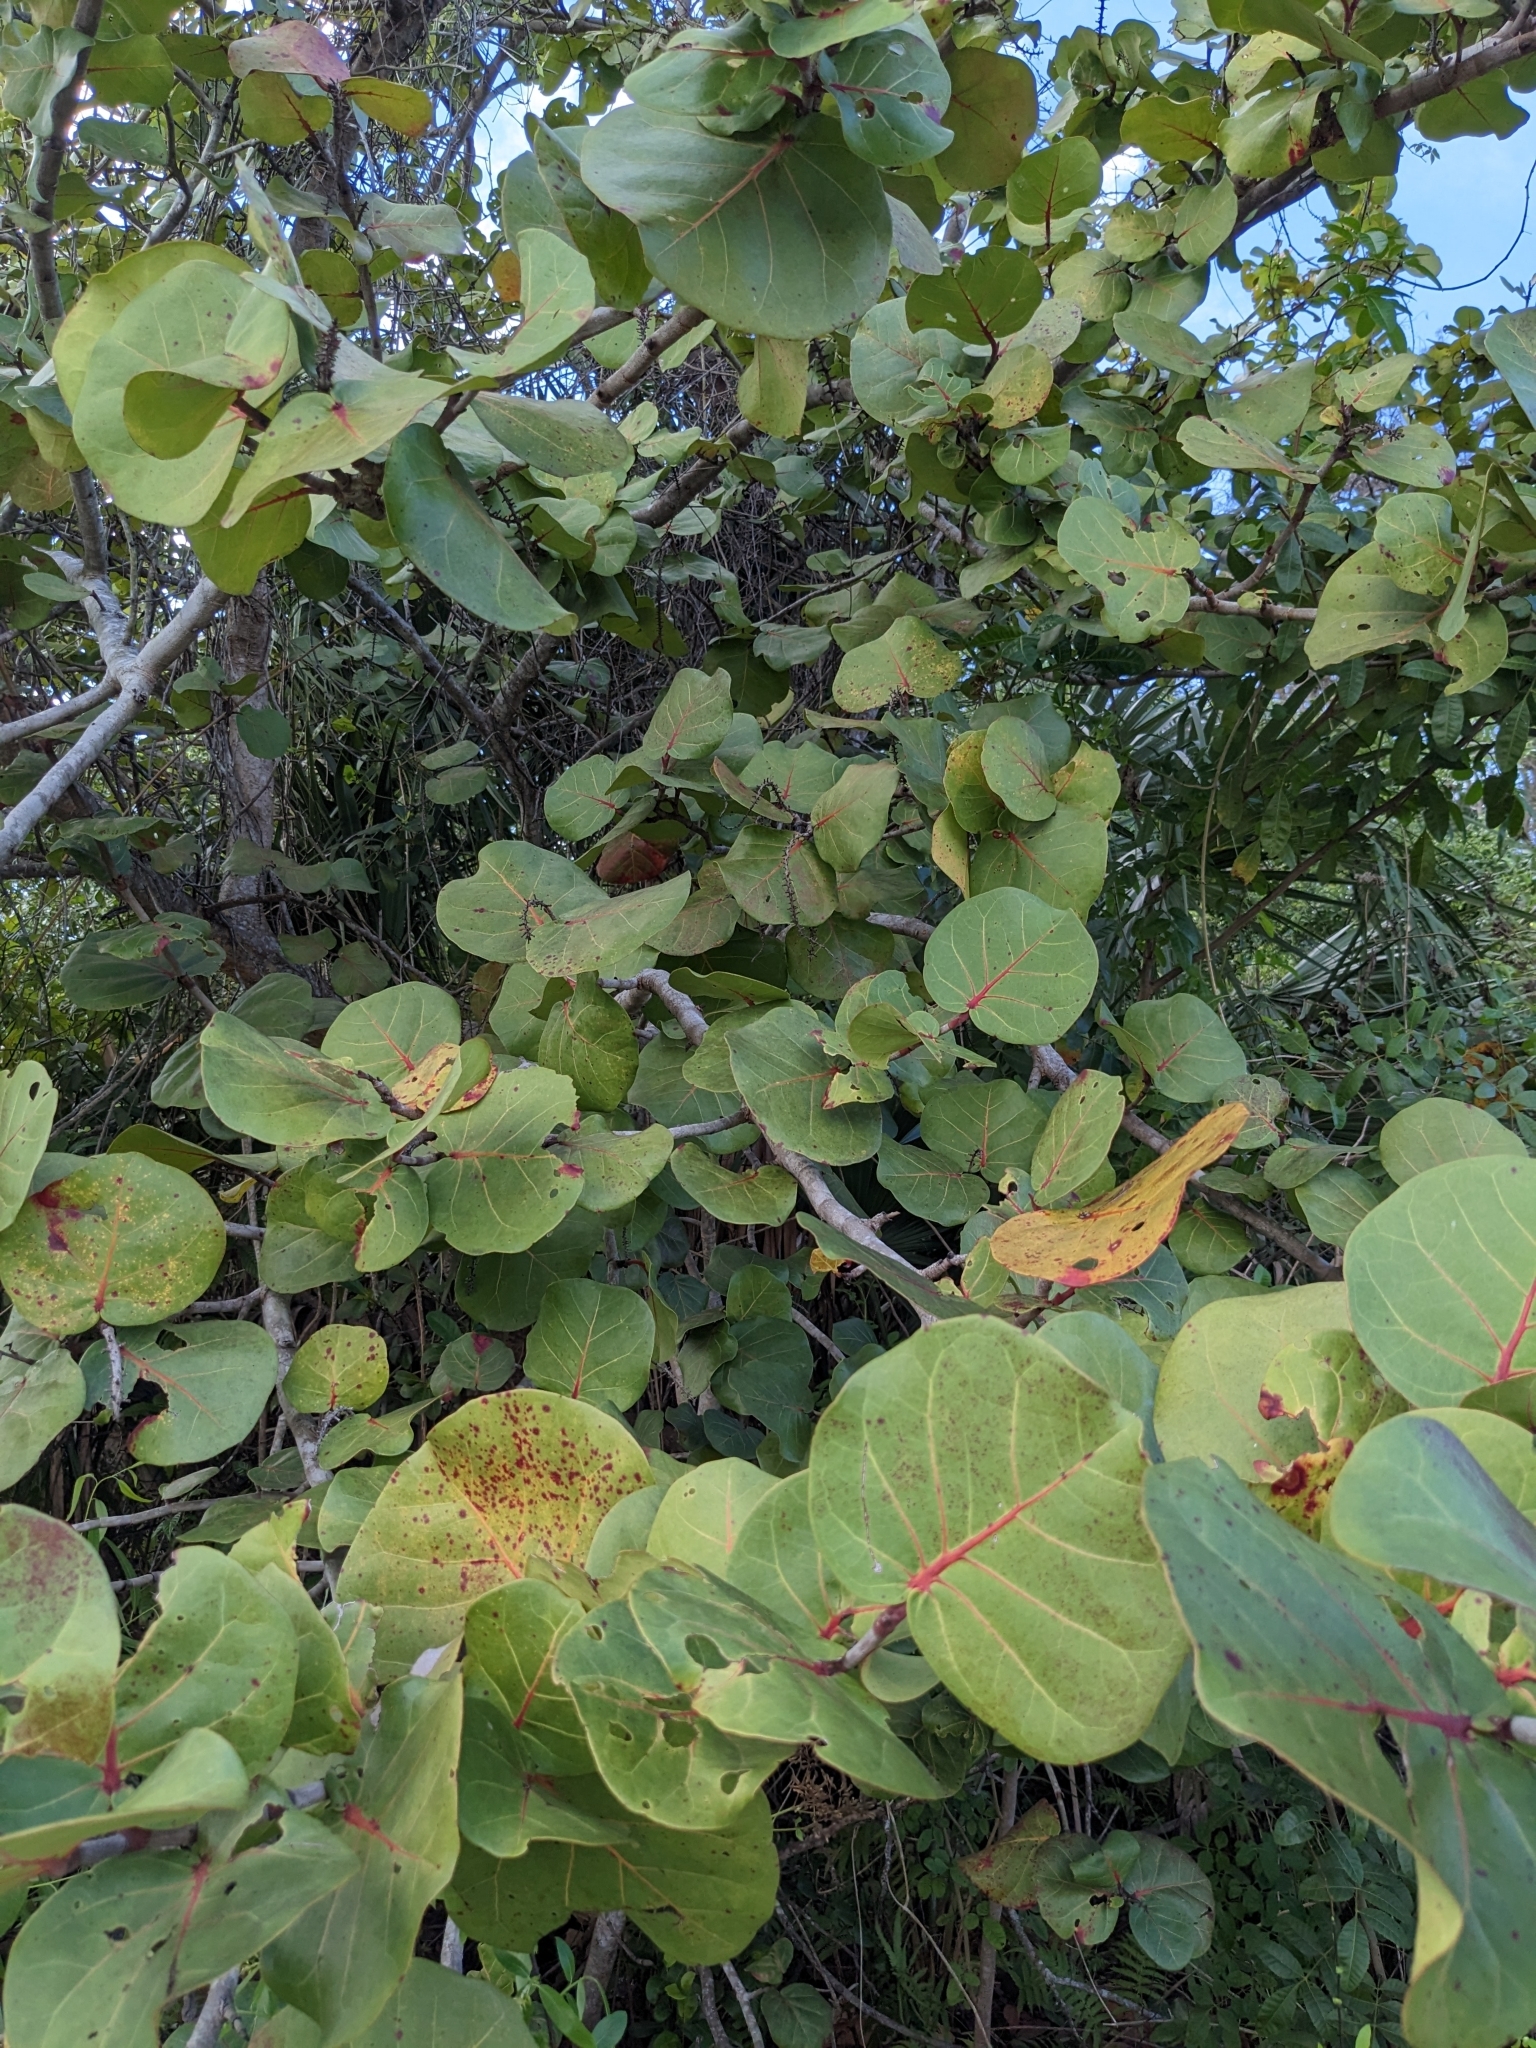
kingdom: Plantae
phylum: Tracheophyta
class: Magnoliopsida
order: Caryophyllales
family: Polygonaceae
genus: Coccoloba
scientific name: Coccoloba uvifera
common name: Seagrape
